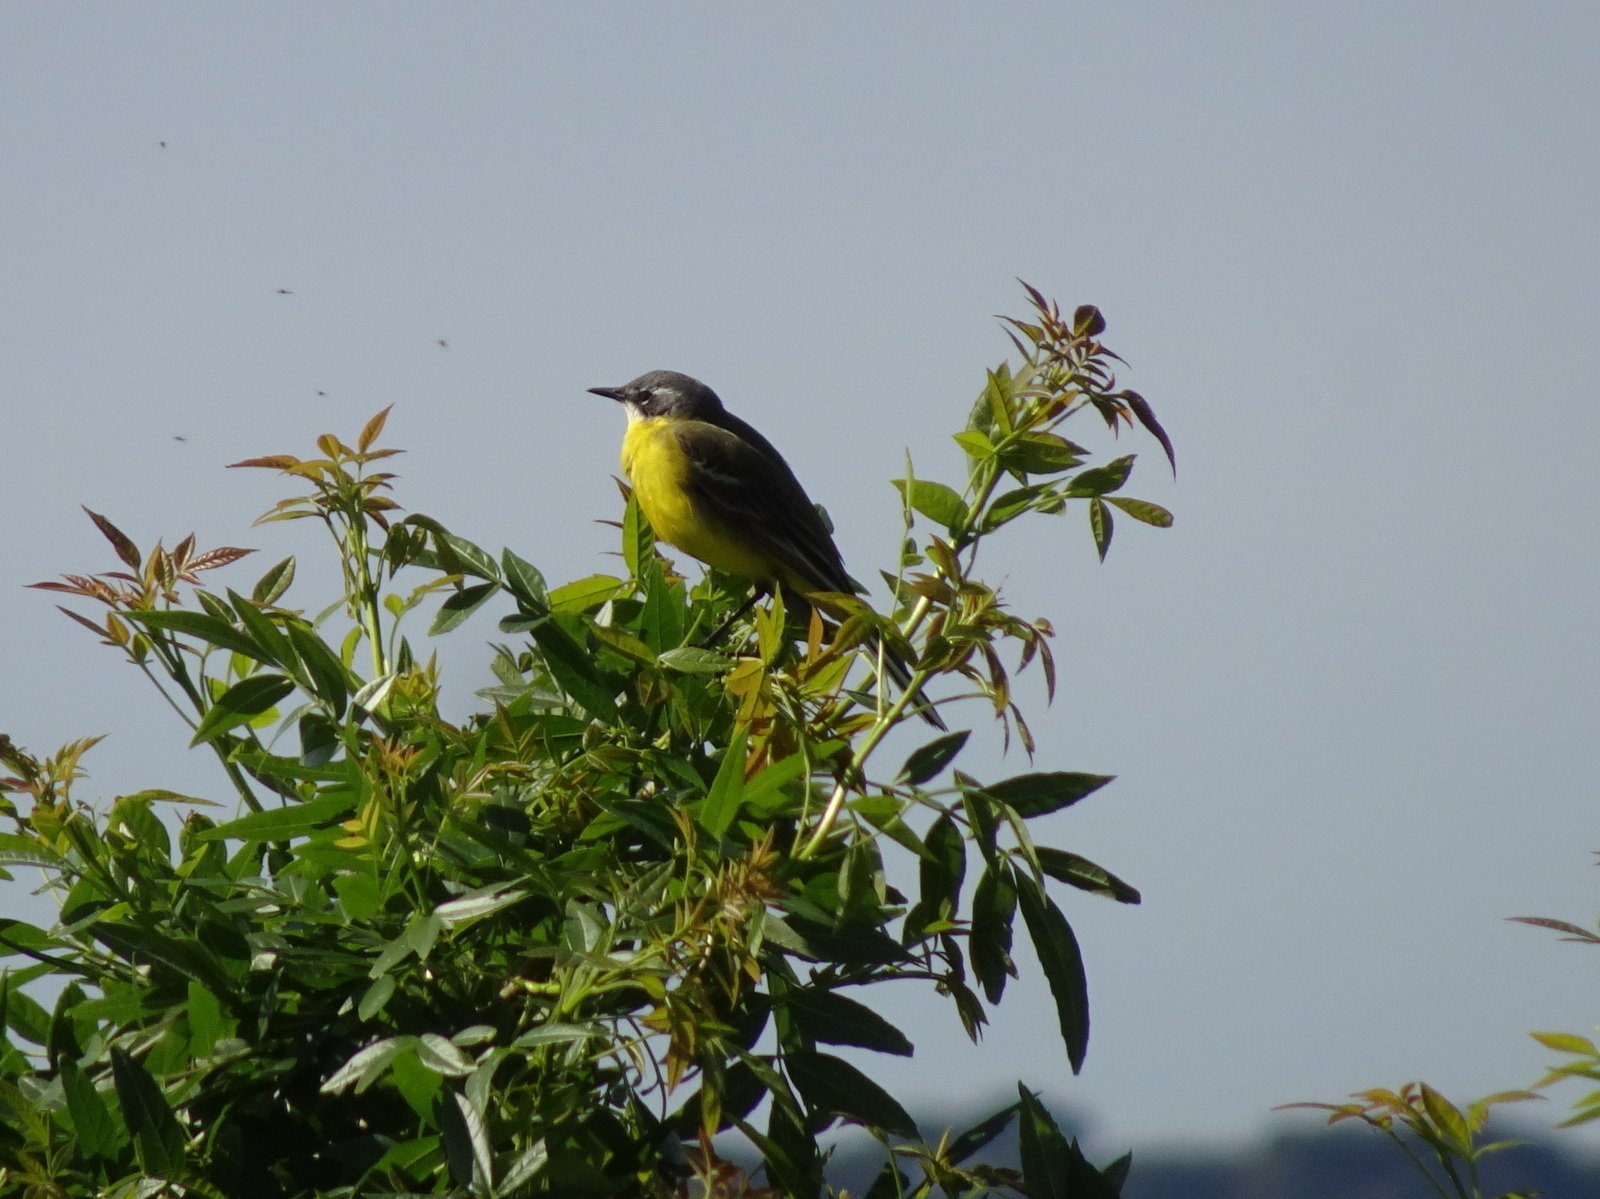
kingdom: Animalia
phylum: Chordata
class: Aves
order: Passeriformes
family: Motacillidae
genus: Motacilla
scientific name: Motacilla flava
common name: Western yellow wagtail
